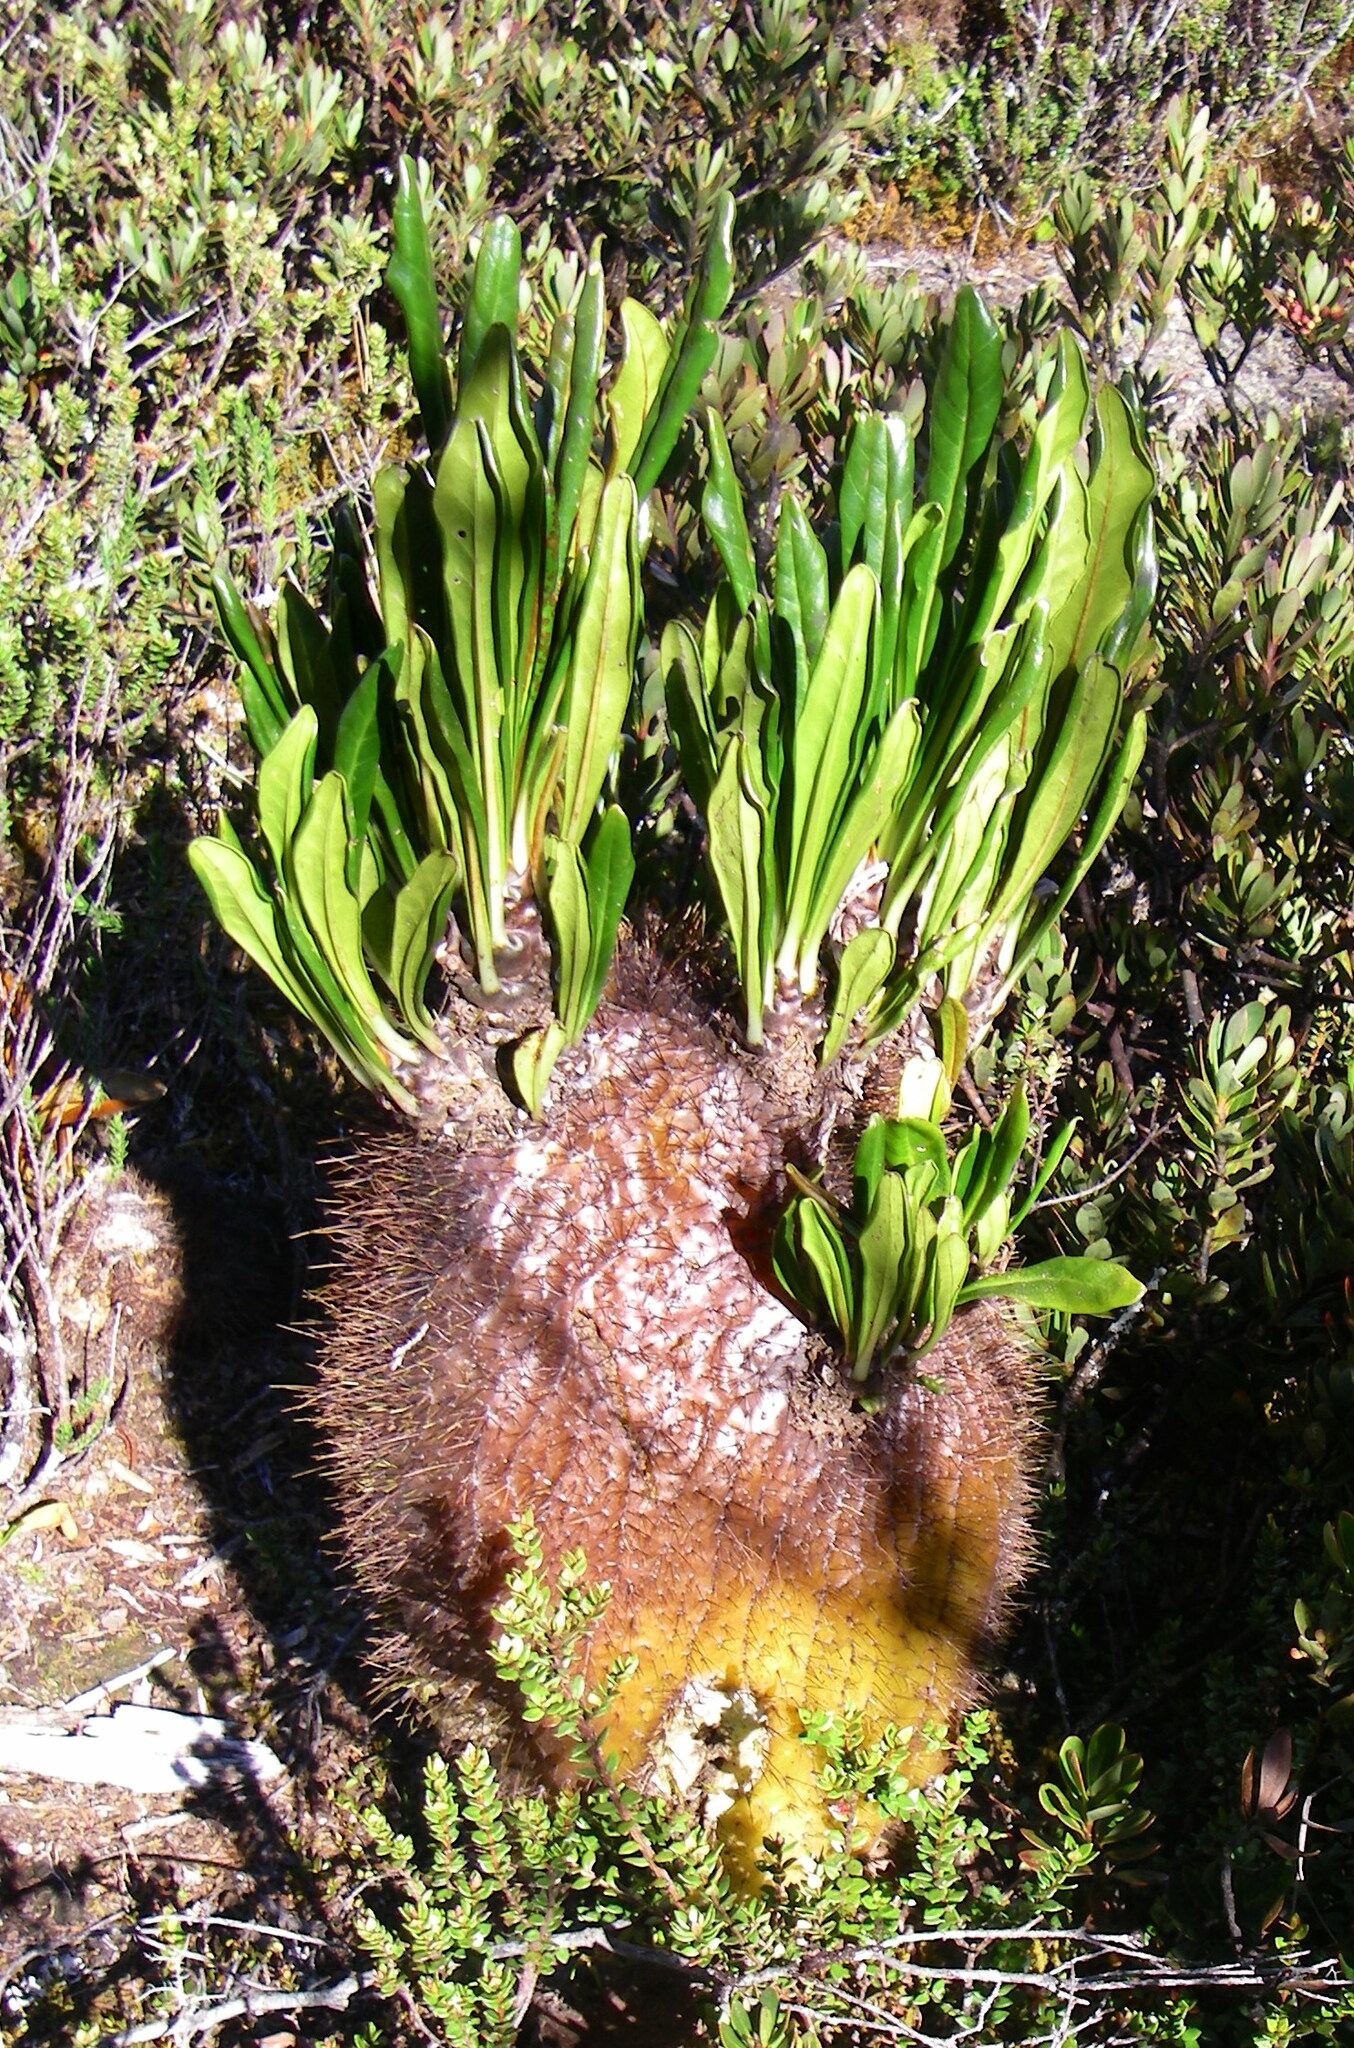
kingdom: Plantae
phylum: Tracheophyta
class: Magnoliopsida
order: Gentianales
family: Rubiaceae
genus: Myrmecodia
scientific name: Myrmecodia brassii
